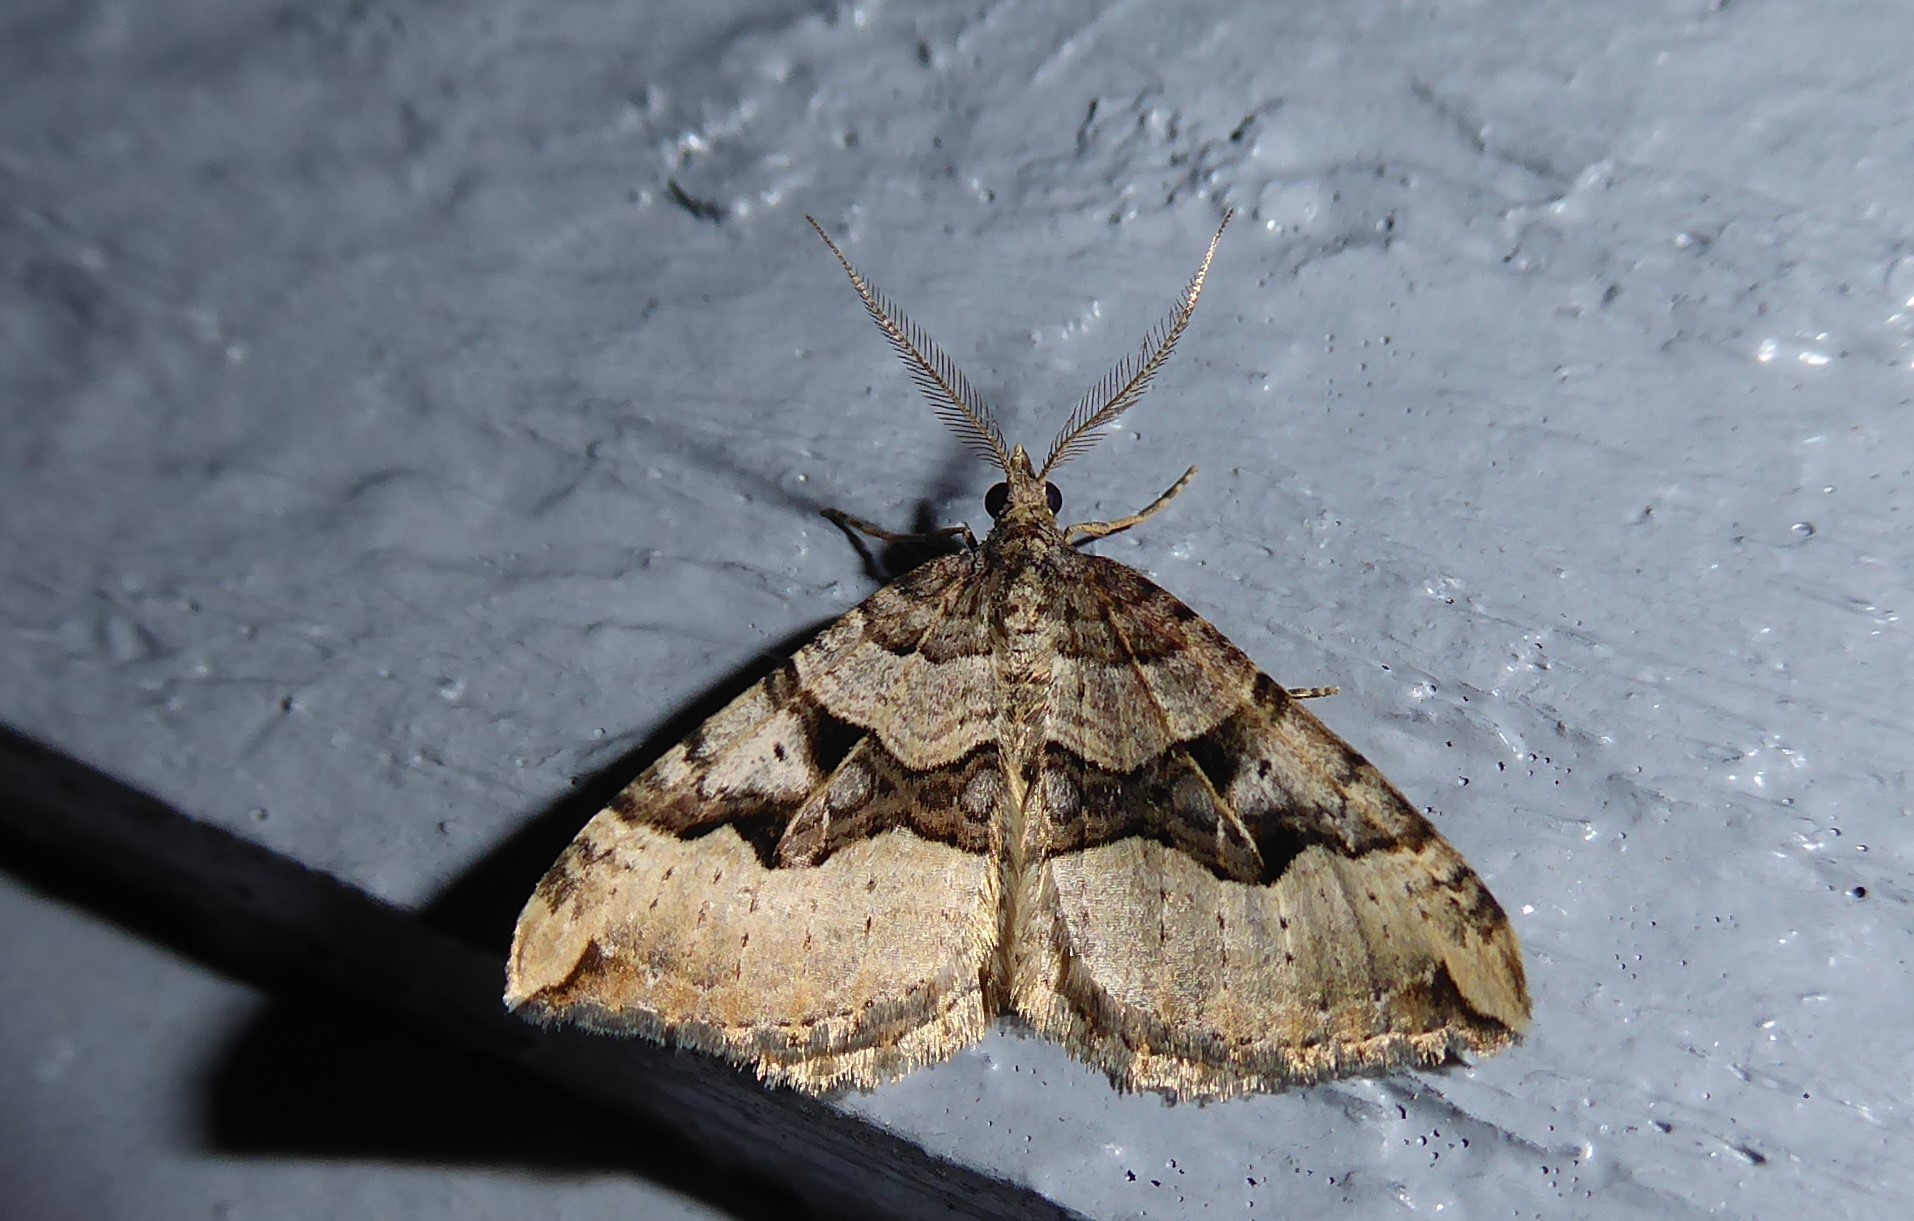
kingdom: Animalia
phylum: Arthropoda
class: Insecta
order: Lepidoptera
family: Geometridae
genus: Xanthorhoe
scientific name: Xanthorhoe semifissata
